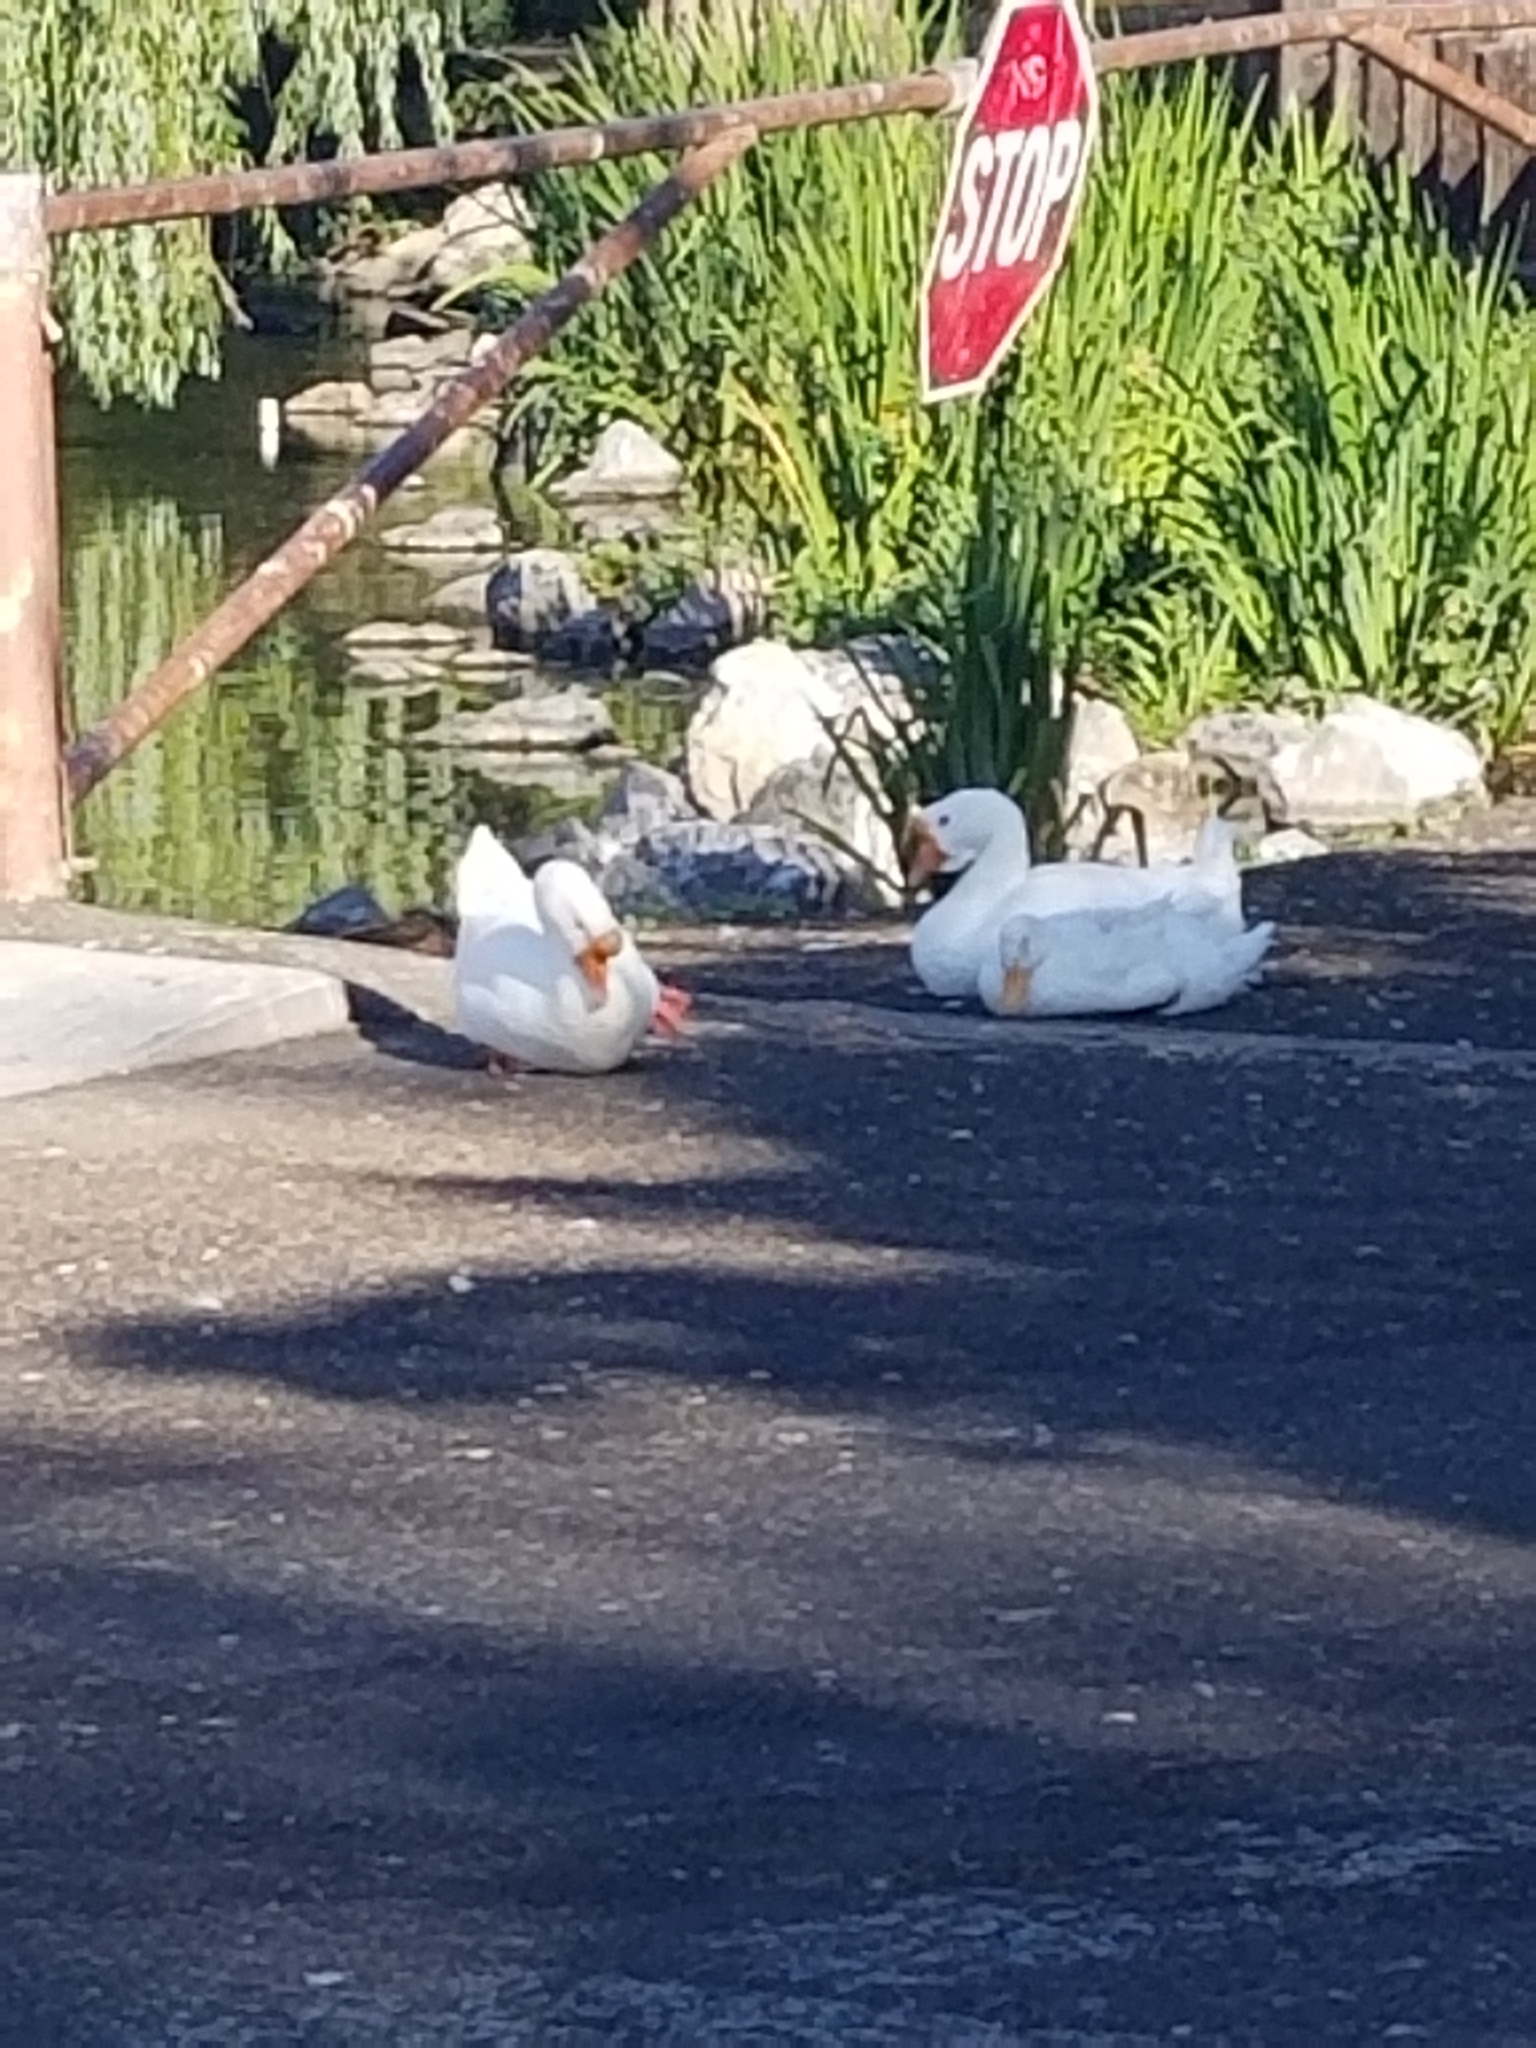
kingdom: Animalia
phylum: Chordata
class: Aves
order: Anseriformes
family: Anatidae
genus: Anser
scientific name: Anser cygnoides
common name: Swan goose
